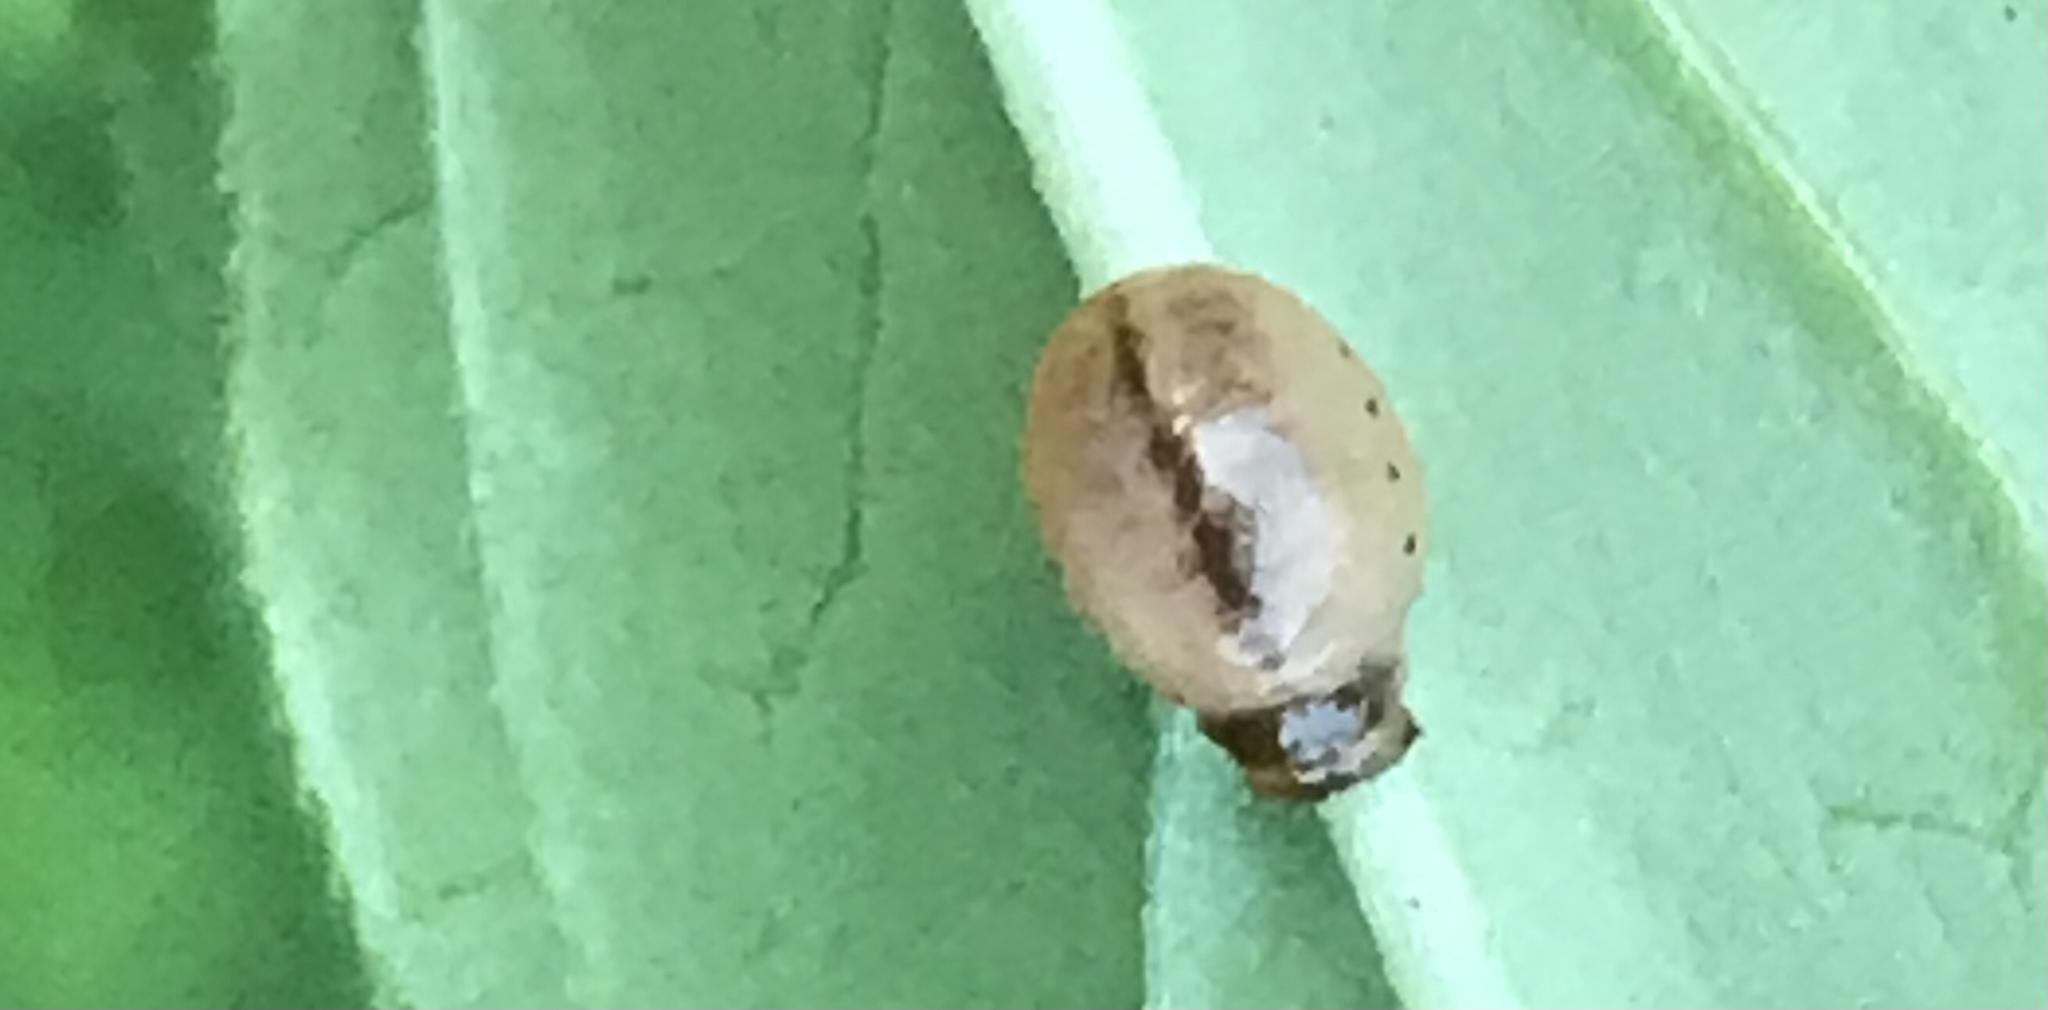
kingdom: Animalia
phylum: Arthropoda
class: Insecta
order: Coleoptera
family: Chrysomelidae
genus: Labidomera
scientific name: Labidomera clivicollis
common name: Swamp milkweed leaf beetle
